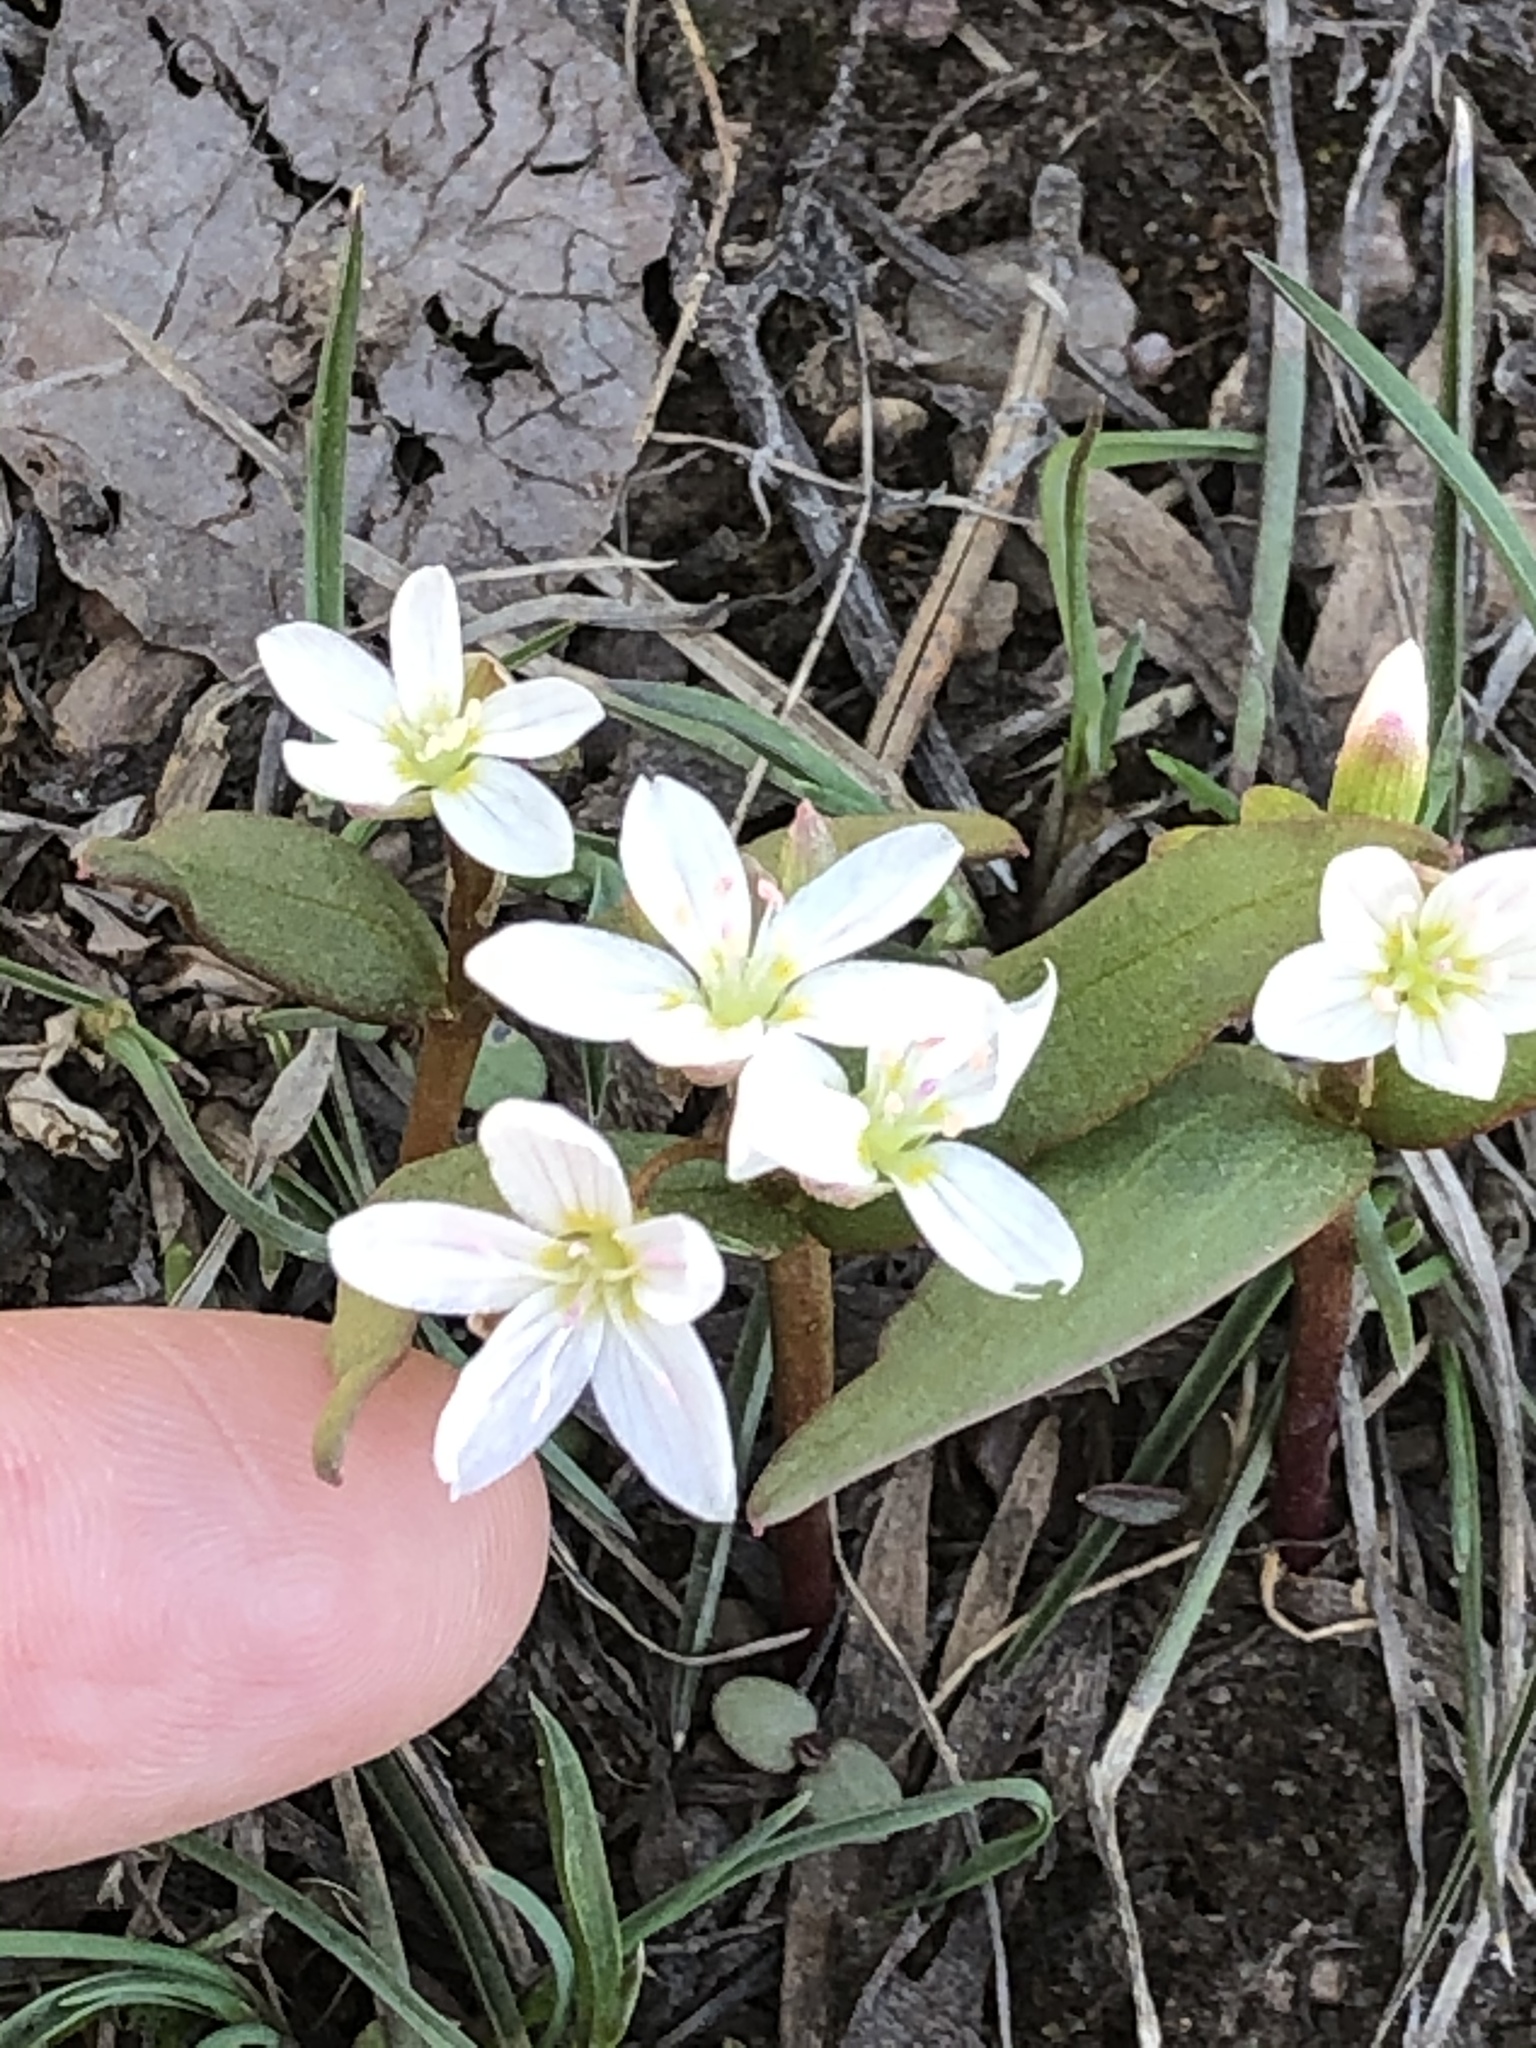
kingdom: Plantae
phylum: Tracheophyta
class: Magnoliopsida
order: Caryophyllales
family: Montiaceae
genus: Claytonia
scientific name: Claytonia lanceolata
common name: Western spring-beauty
